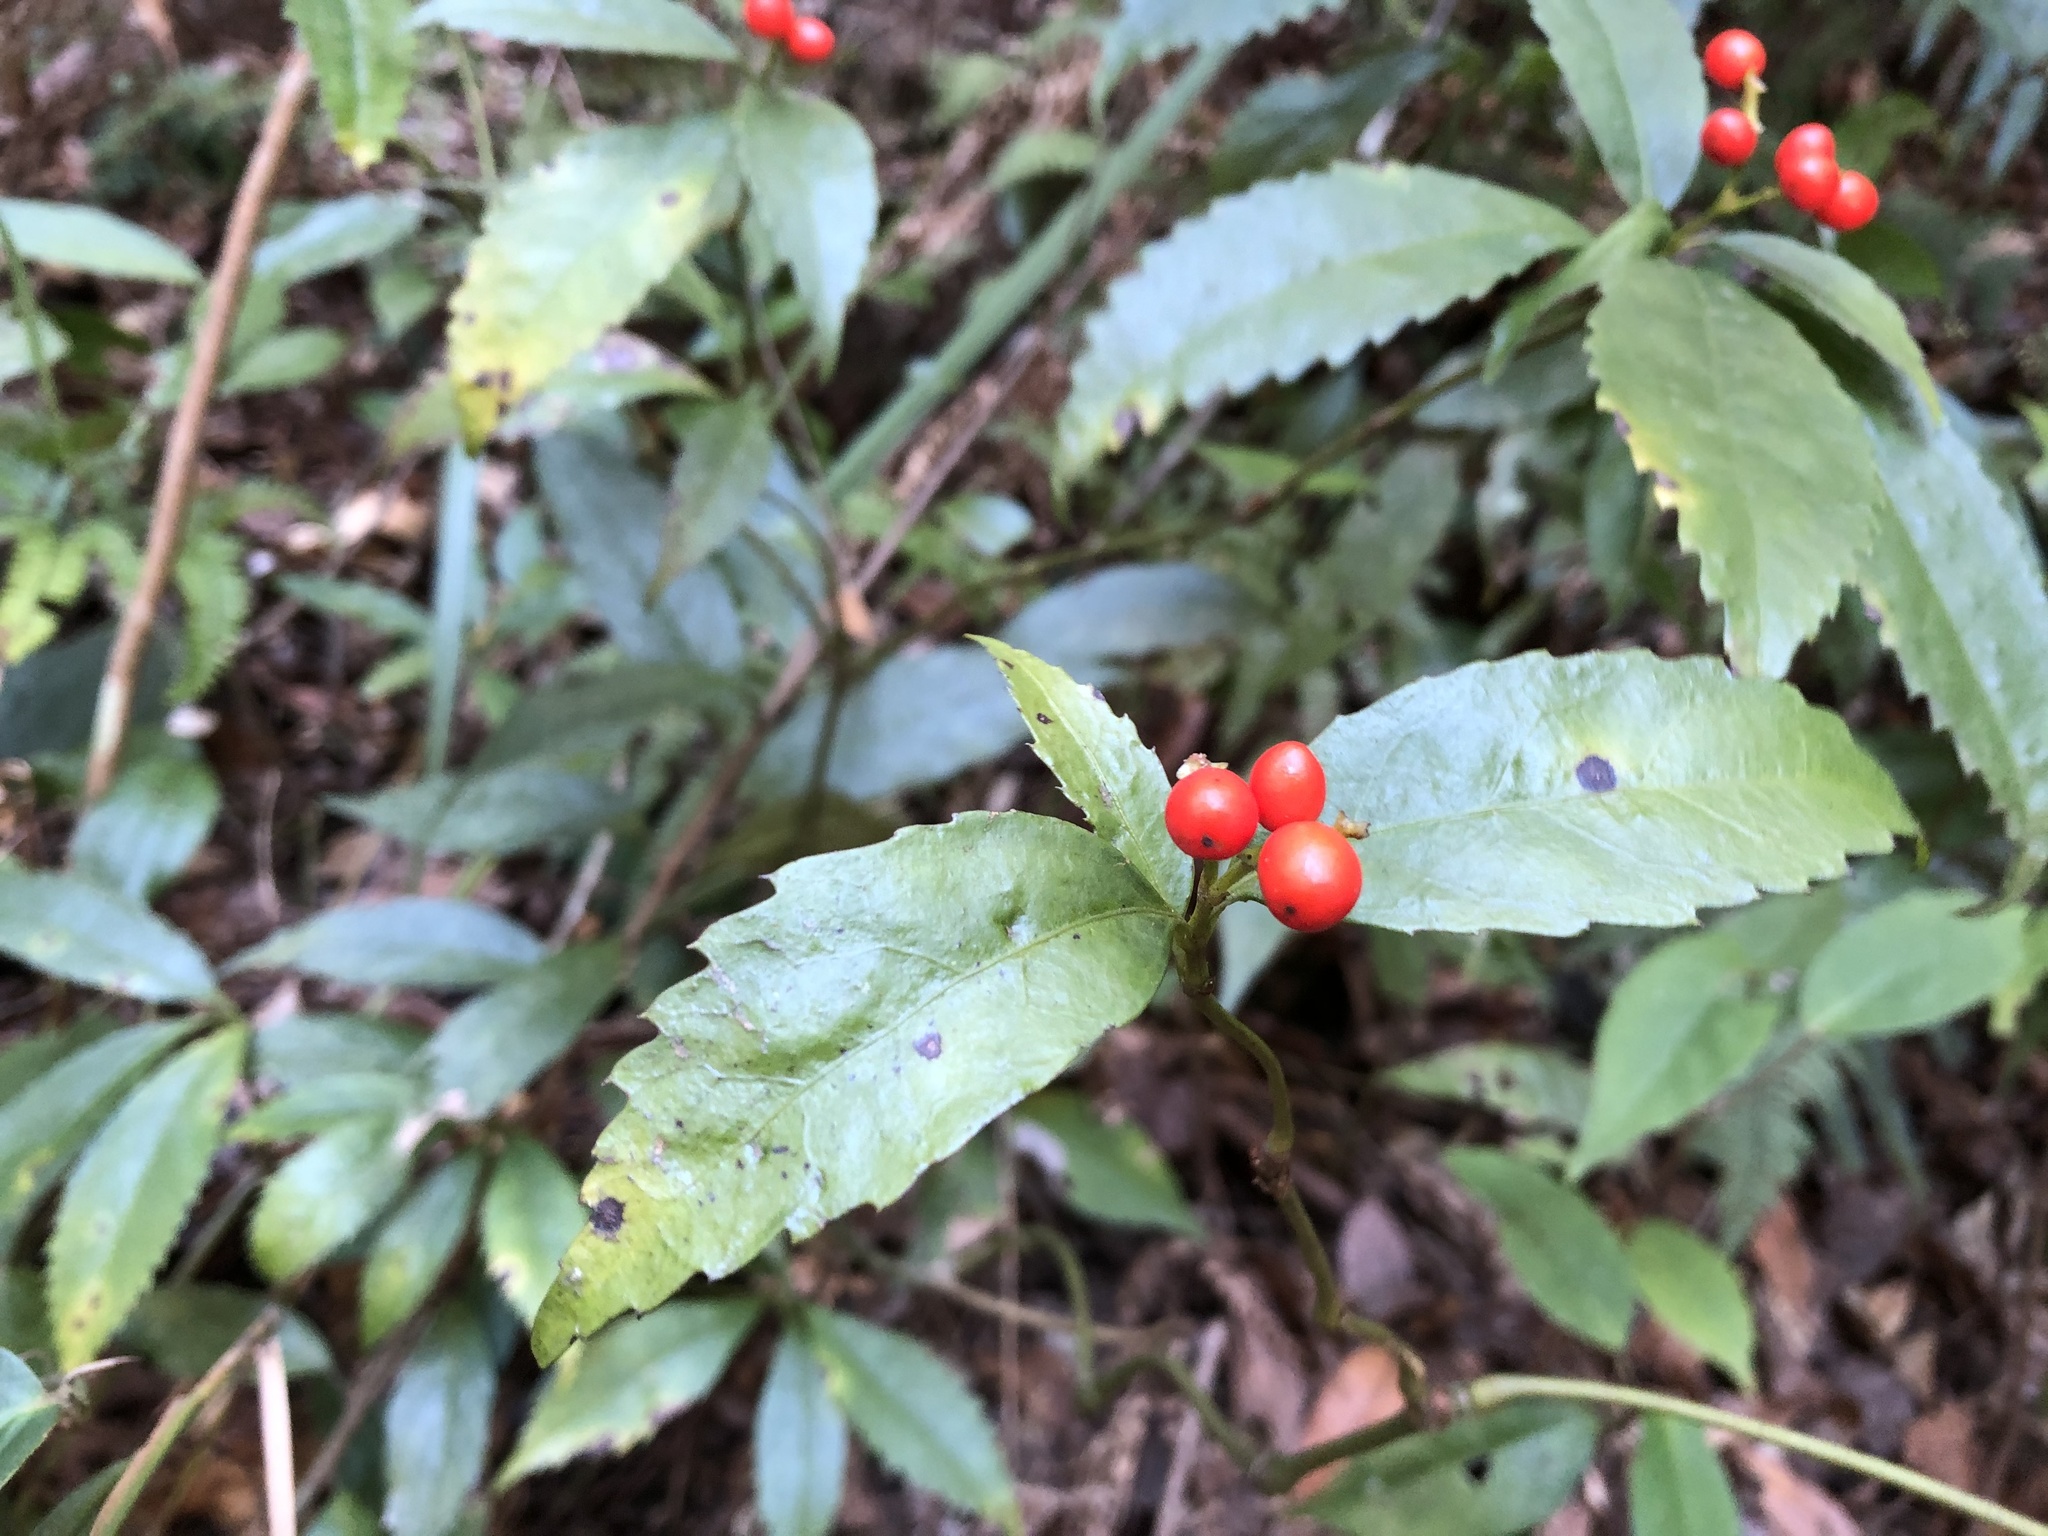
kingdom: Plantae
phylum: Tracheophyta
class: Magnoliopsida
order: Chloranthales
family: Chloranthaceae
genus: Sarcandra
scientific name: Sarcandra glabra
